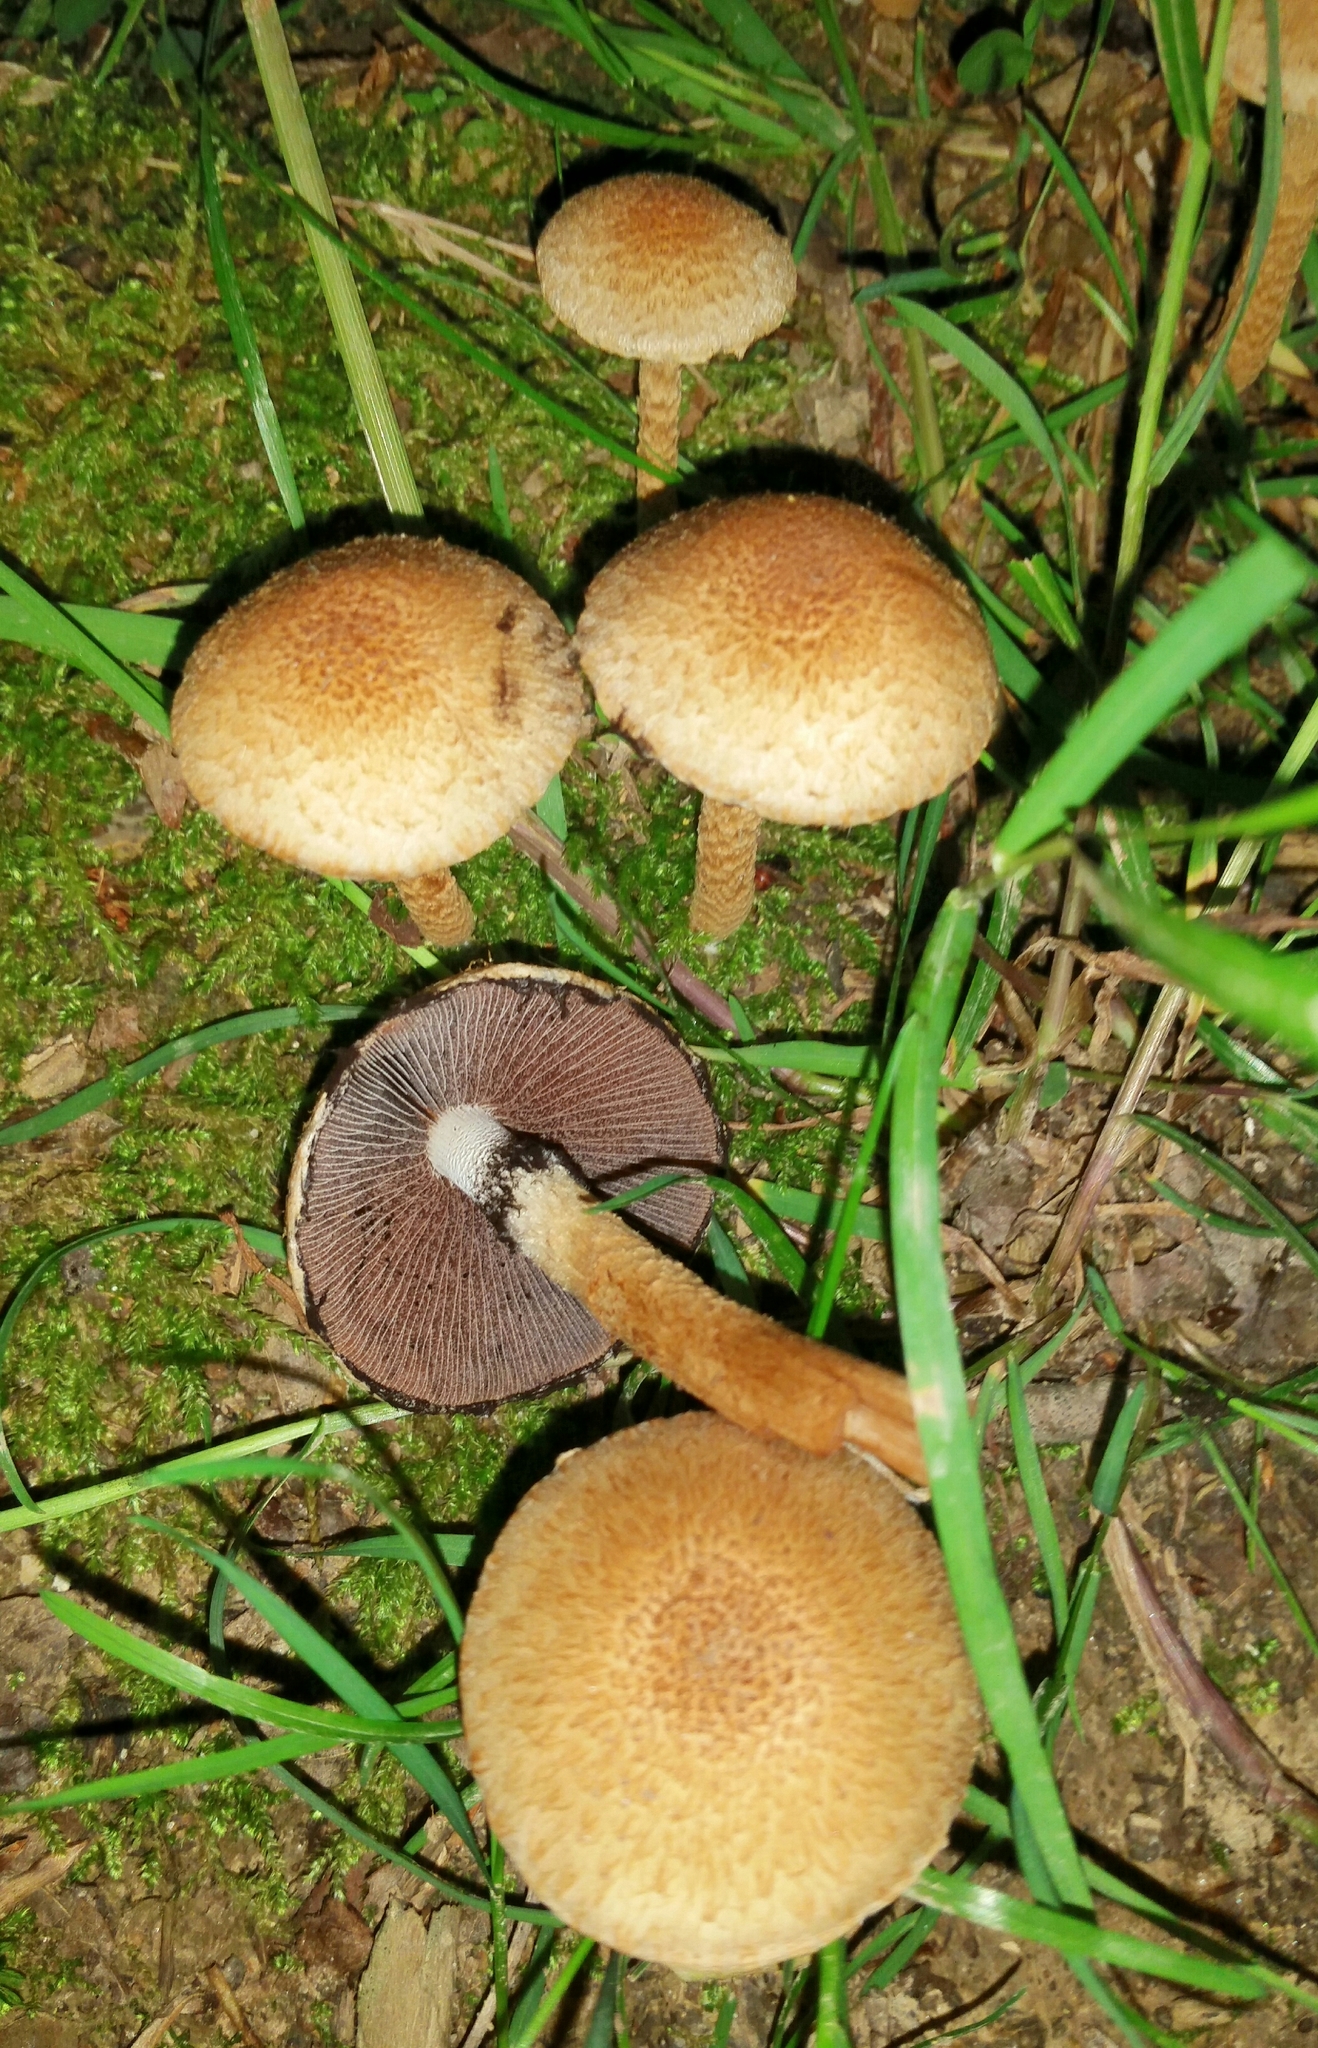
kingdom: Fungi
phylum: Basidiomycota
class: Agaricomycetes
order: Agaricales
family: Psathyrellaceae
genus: Lacrymaria
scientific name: Lacrymaria lacrymabunda
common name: Weeping widow
